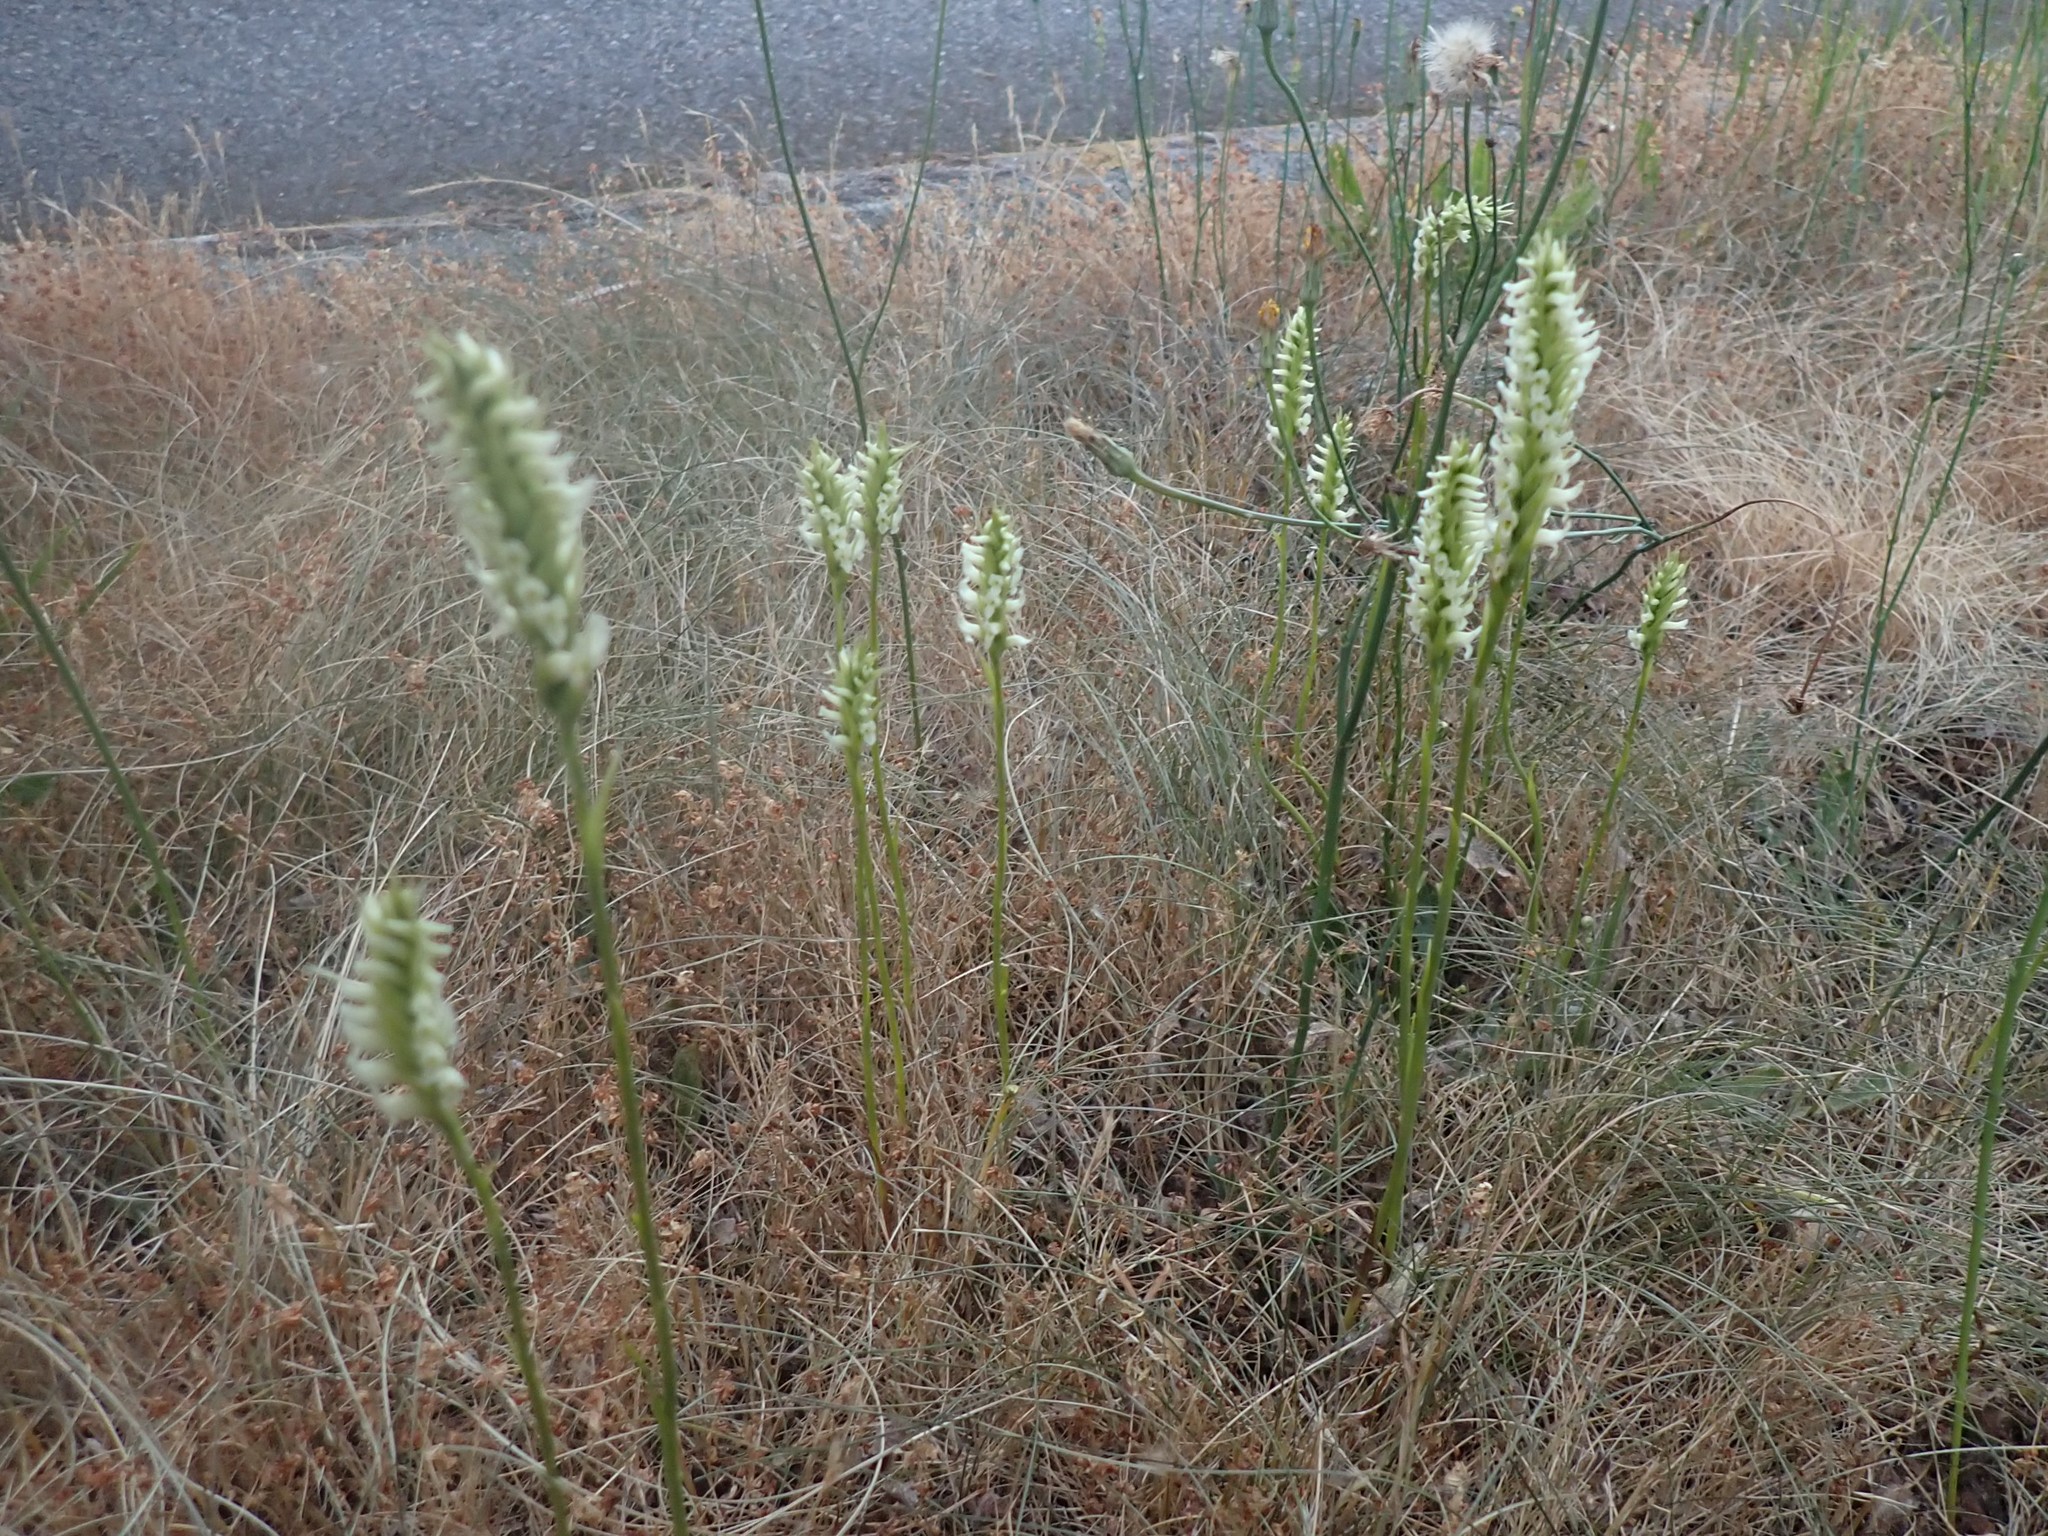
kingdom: Plantae
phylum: Tracheophyta
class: Liliopsida
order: Asparagales
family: Orchidaceae
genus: Spiranthes
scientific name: Spiranthes romanzoffiana
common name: Irish lady's-tresses
